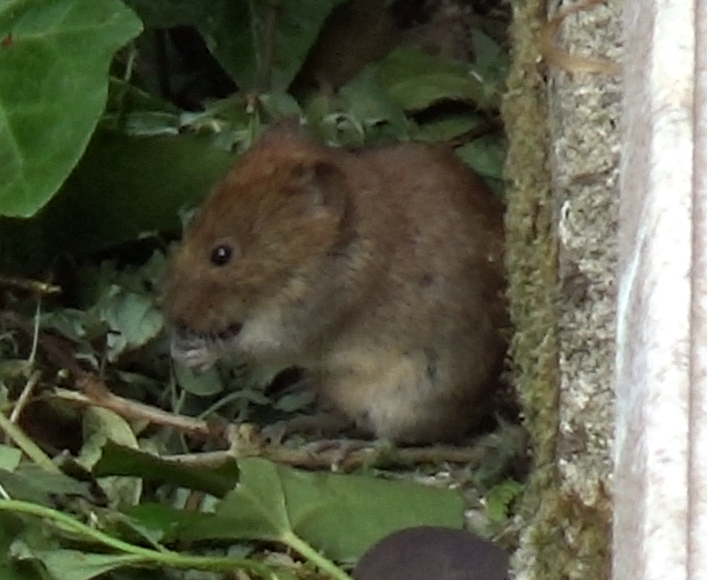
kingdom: Animalia
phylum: Chordata
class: Mammalia
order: Rodentia
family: Cricetidae
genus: Myodes
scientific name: Myodes glareolus
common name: Bank vole
